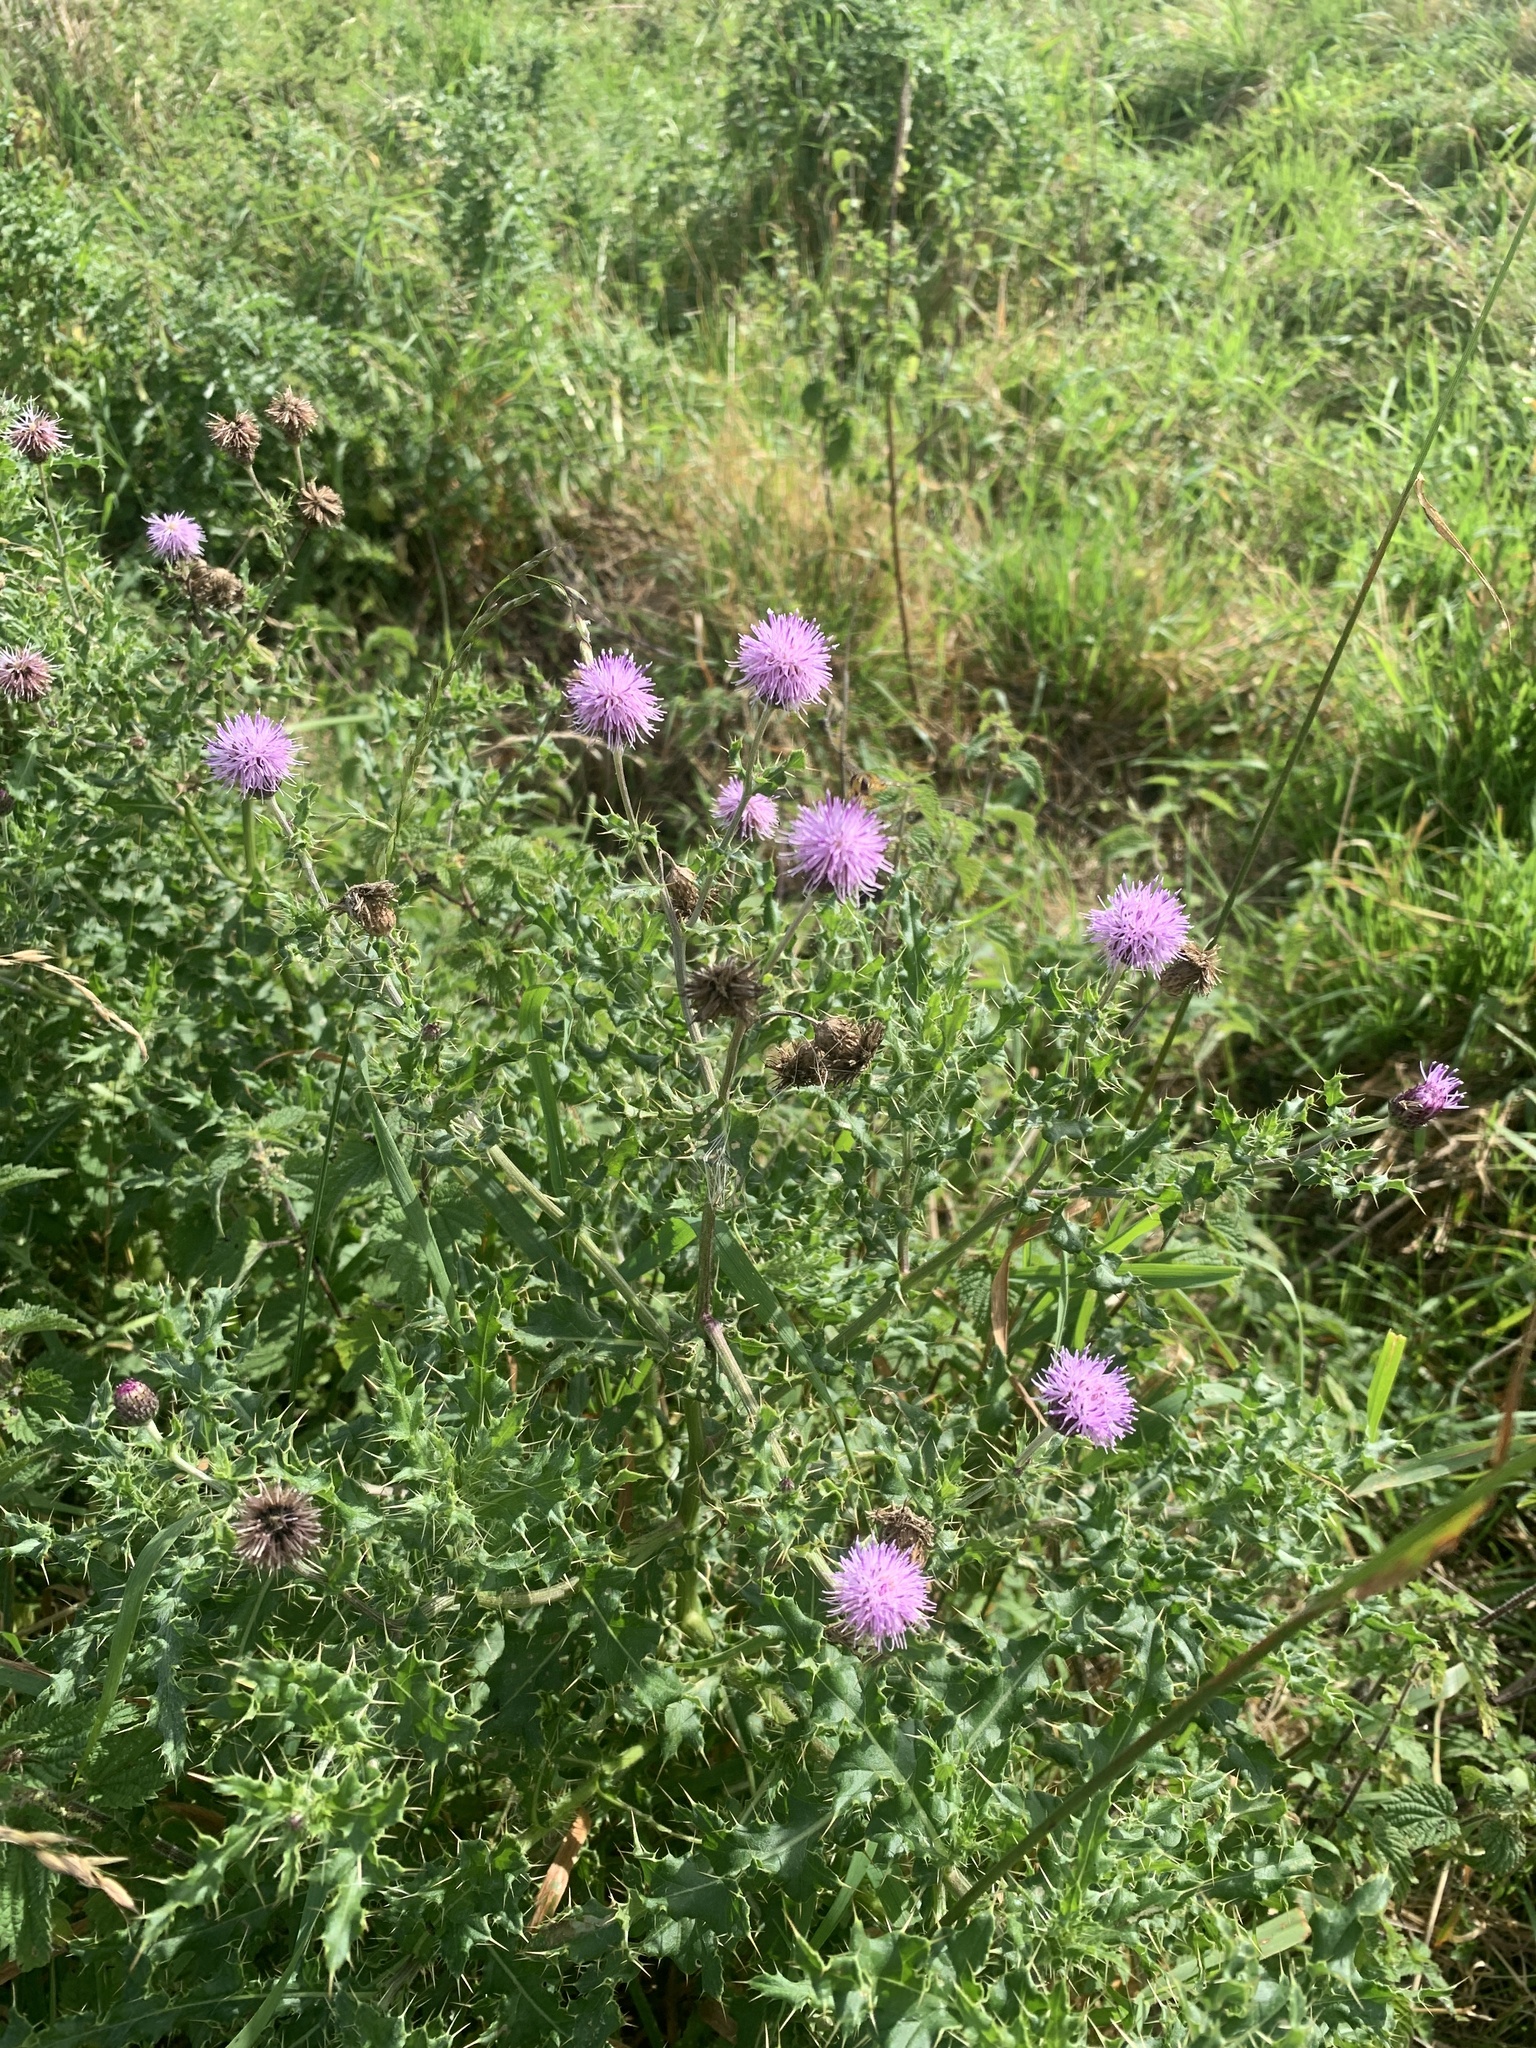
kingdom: Plantae
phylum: Tracheophyta
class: Magnoliopsida
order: Asterales
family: Asteraceae
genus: Cirsium
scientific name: Cirsium arvense
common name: Creeping thistle
